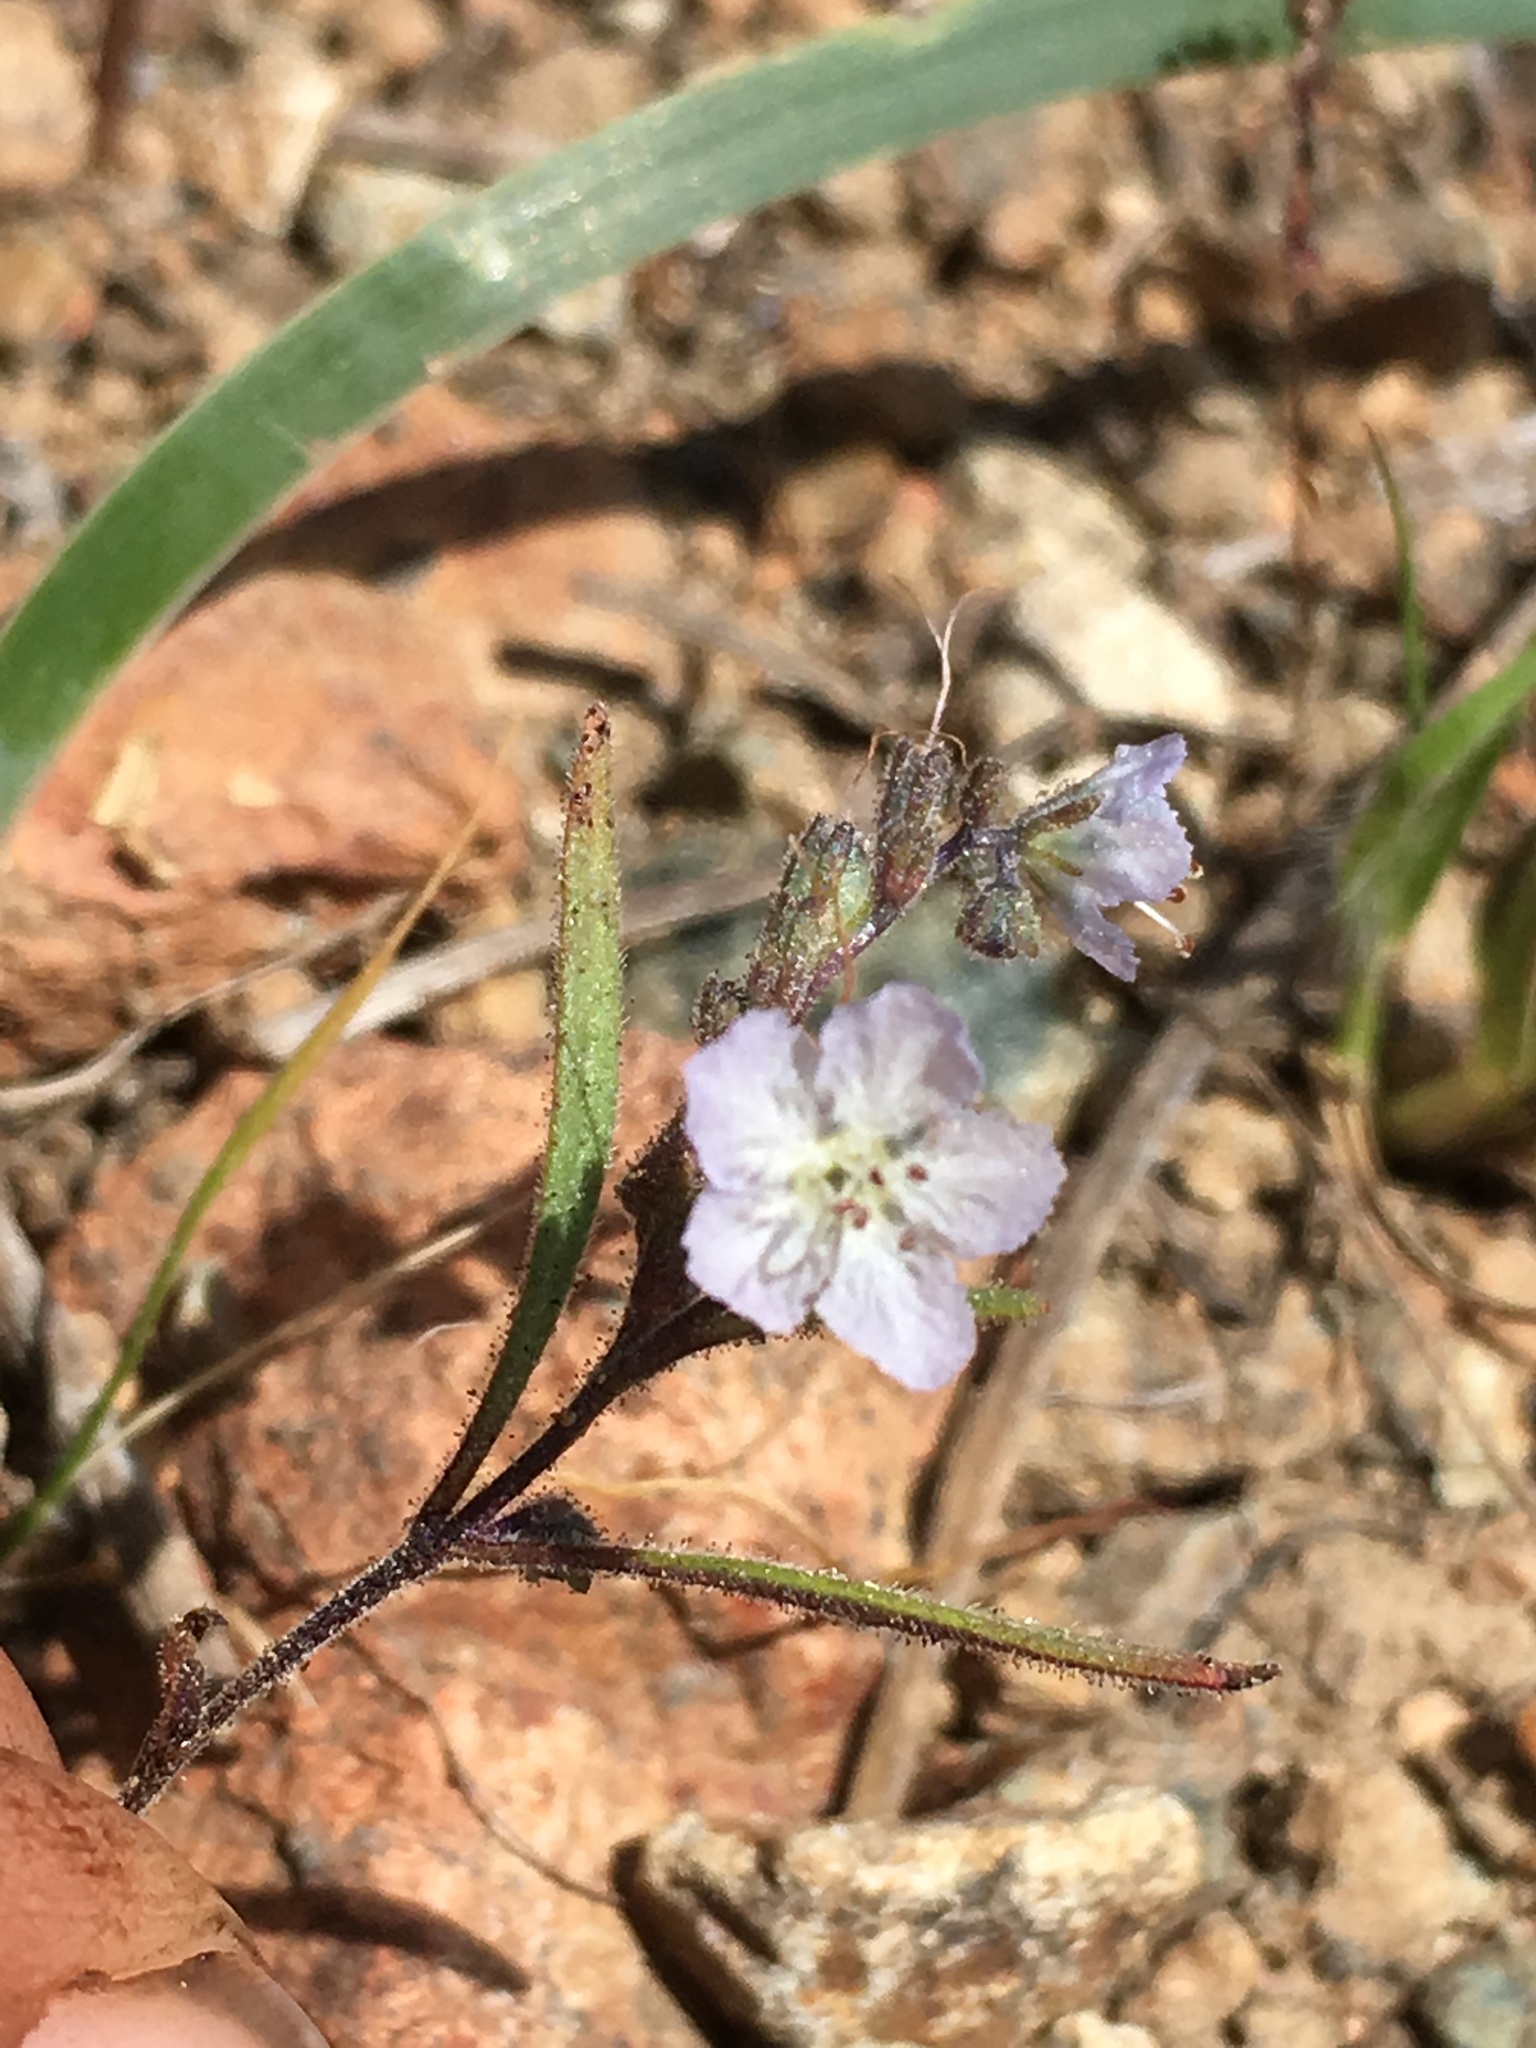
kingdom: Plantae
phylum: Tracheophyta
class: Magnoliopsida
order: Boraginales
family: Hydrophyllaceae
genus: Phacelia
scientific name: Phacelia pringlei
